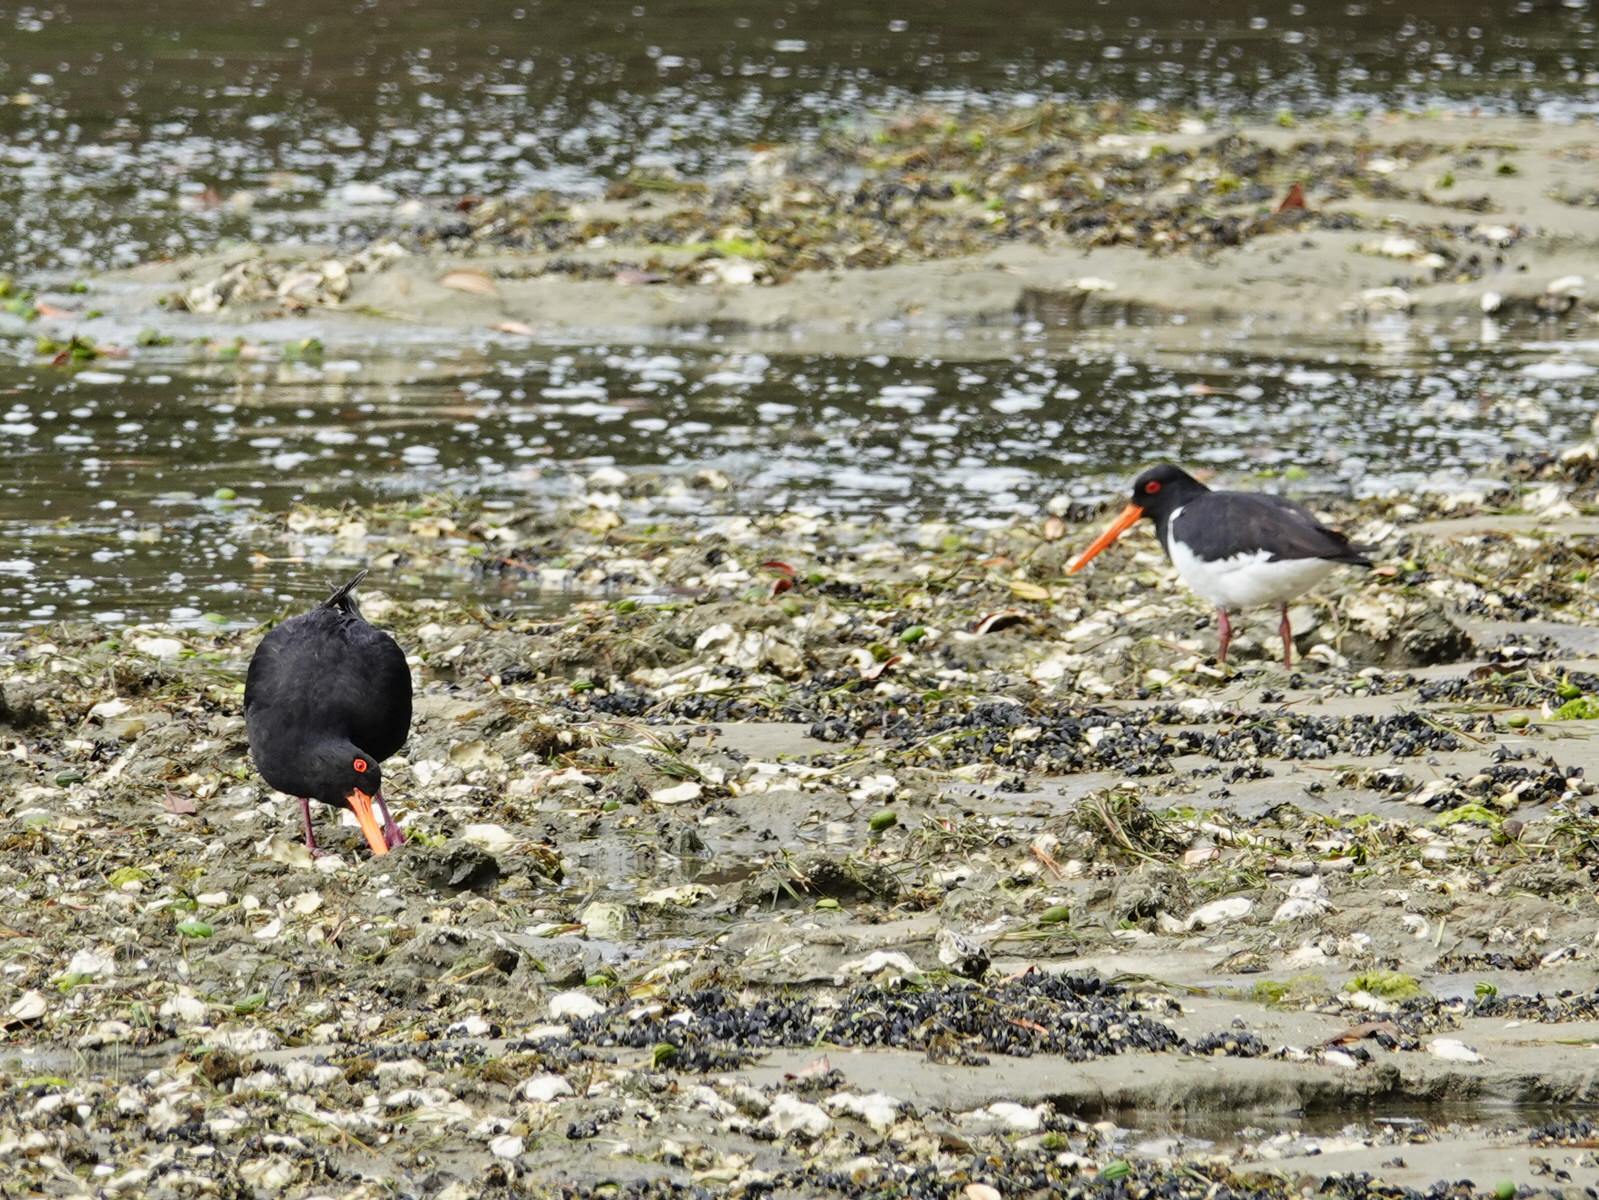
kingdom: Animalia
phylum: Chordata
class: Aves
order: Charadriiformes
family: Haematopodidae
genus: Haematopus
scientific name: Haematopus unicolor
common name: Variable oystercatcher
